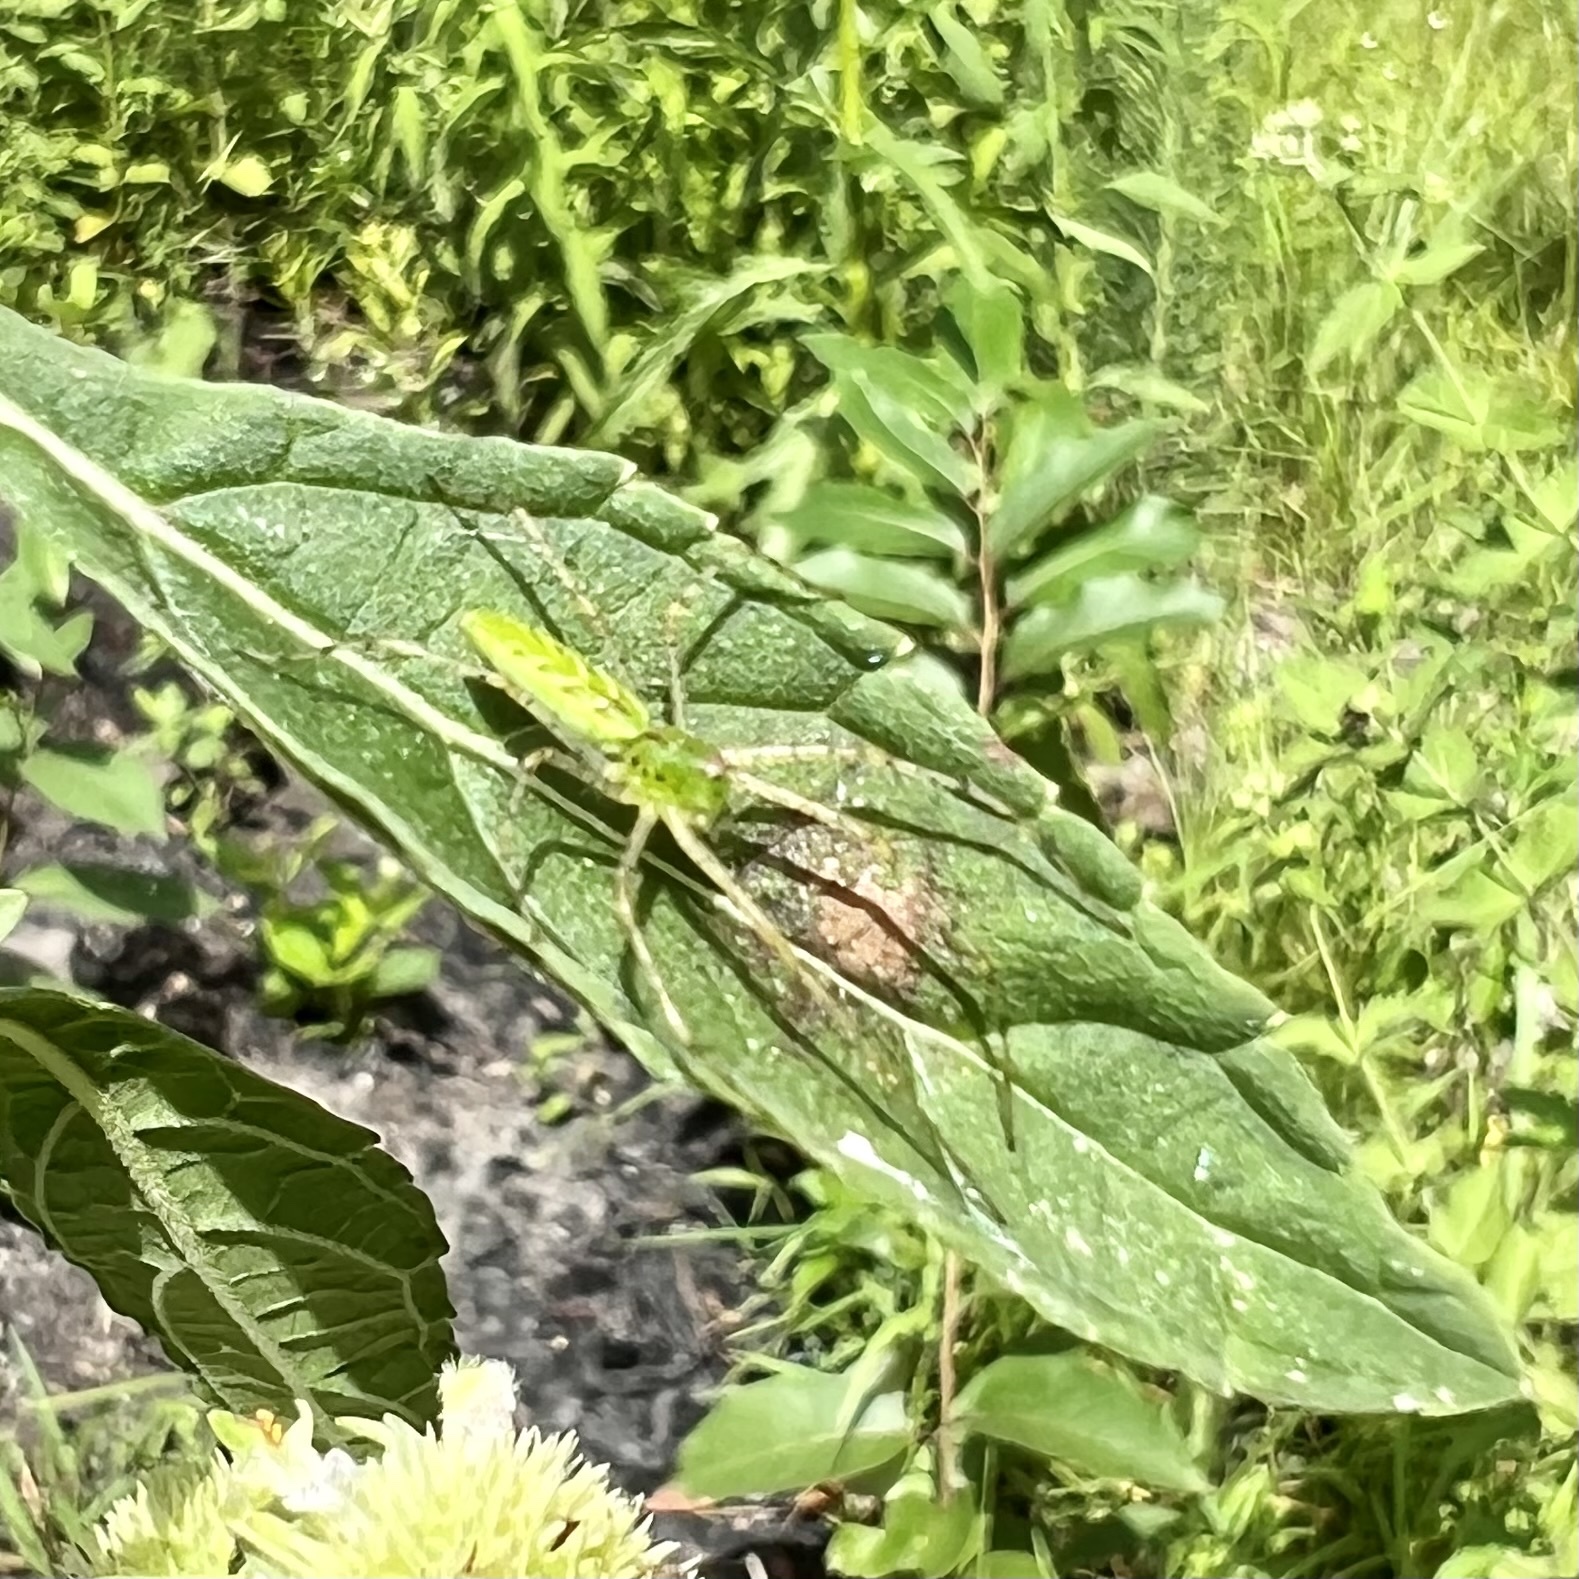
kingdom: Animalia
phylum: Arthropoda
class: Arachnida
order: Araneae
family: Oxyopidae
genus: Peucetia
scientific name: Peucetia viridans
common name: Lynx spiders
